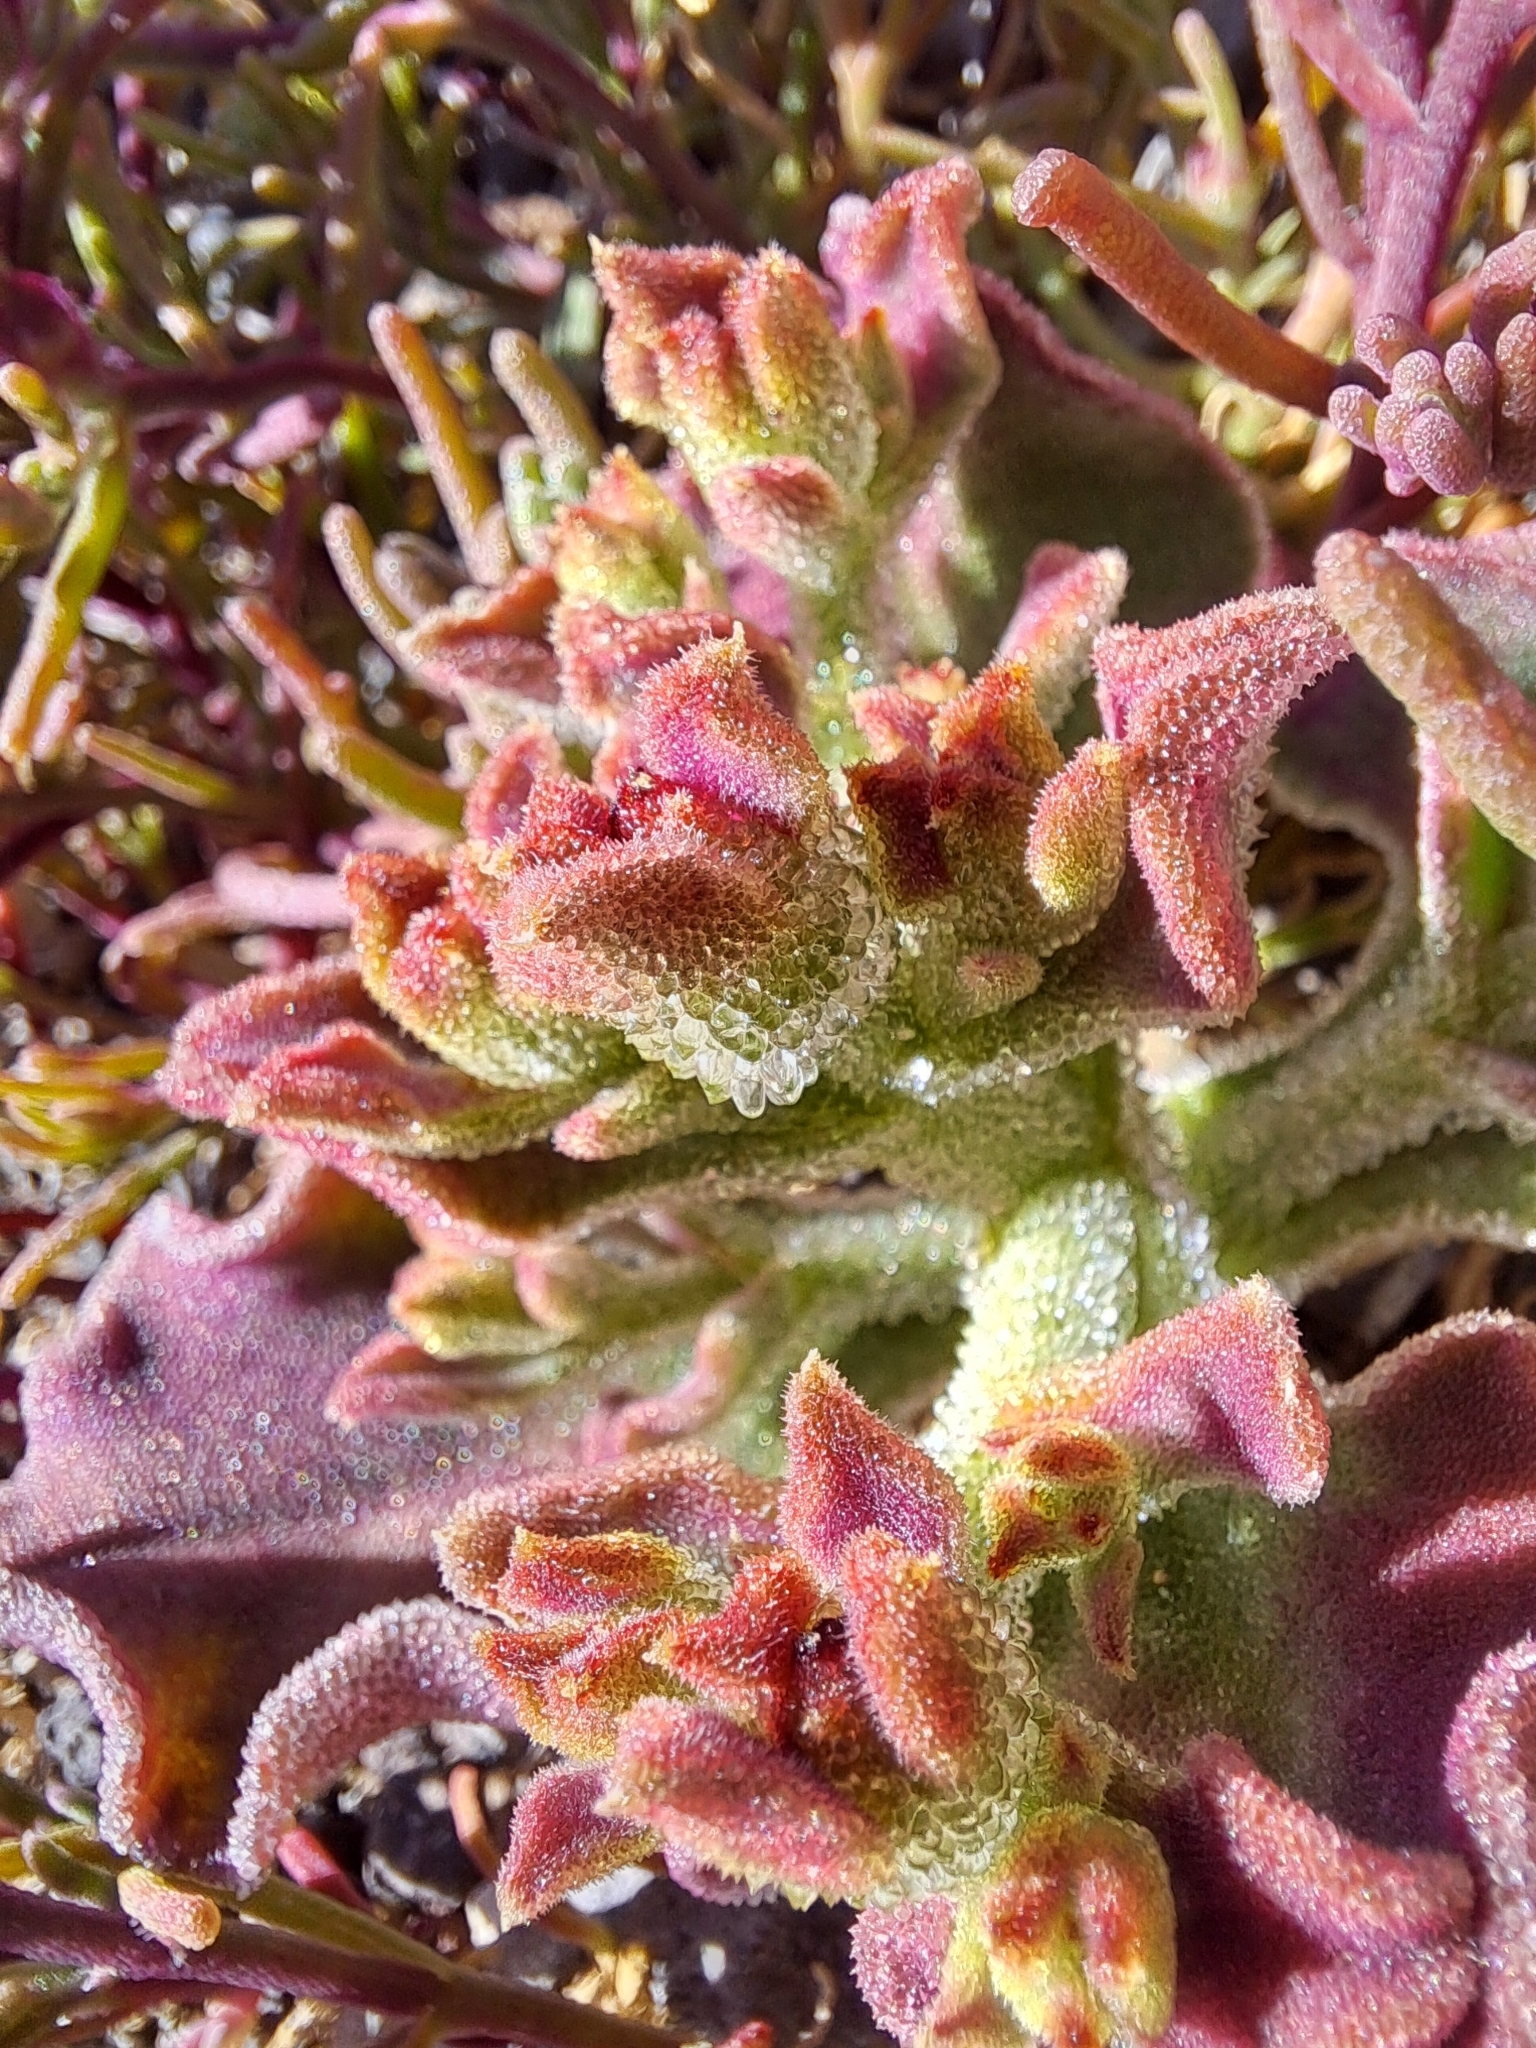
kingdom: Plantae
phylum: Tracheophyta
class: Magnoliopsida
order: Caryophyllales
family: Aizoaceae
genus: Mesembryanthemum
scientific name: Mesembryanthemum crystallinum
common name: Common iceplant
